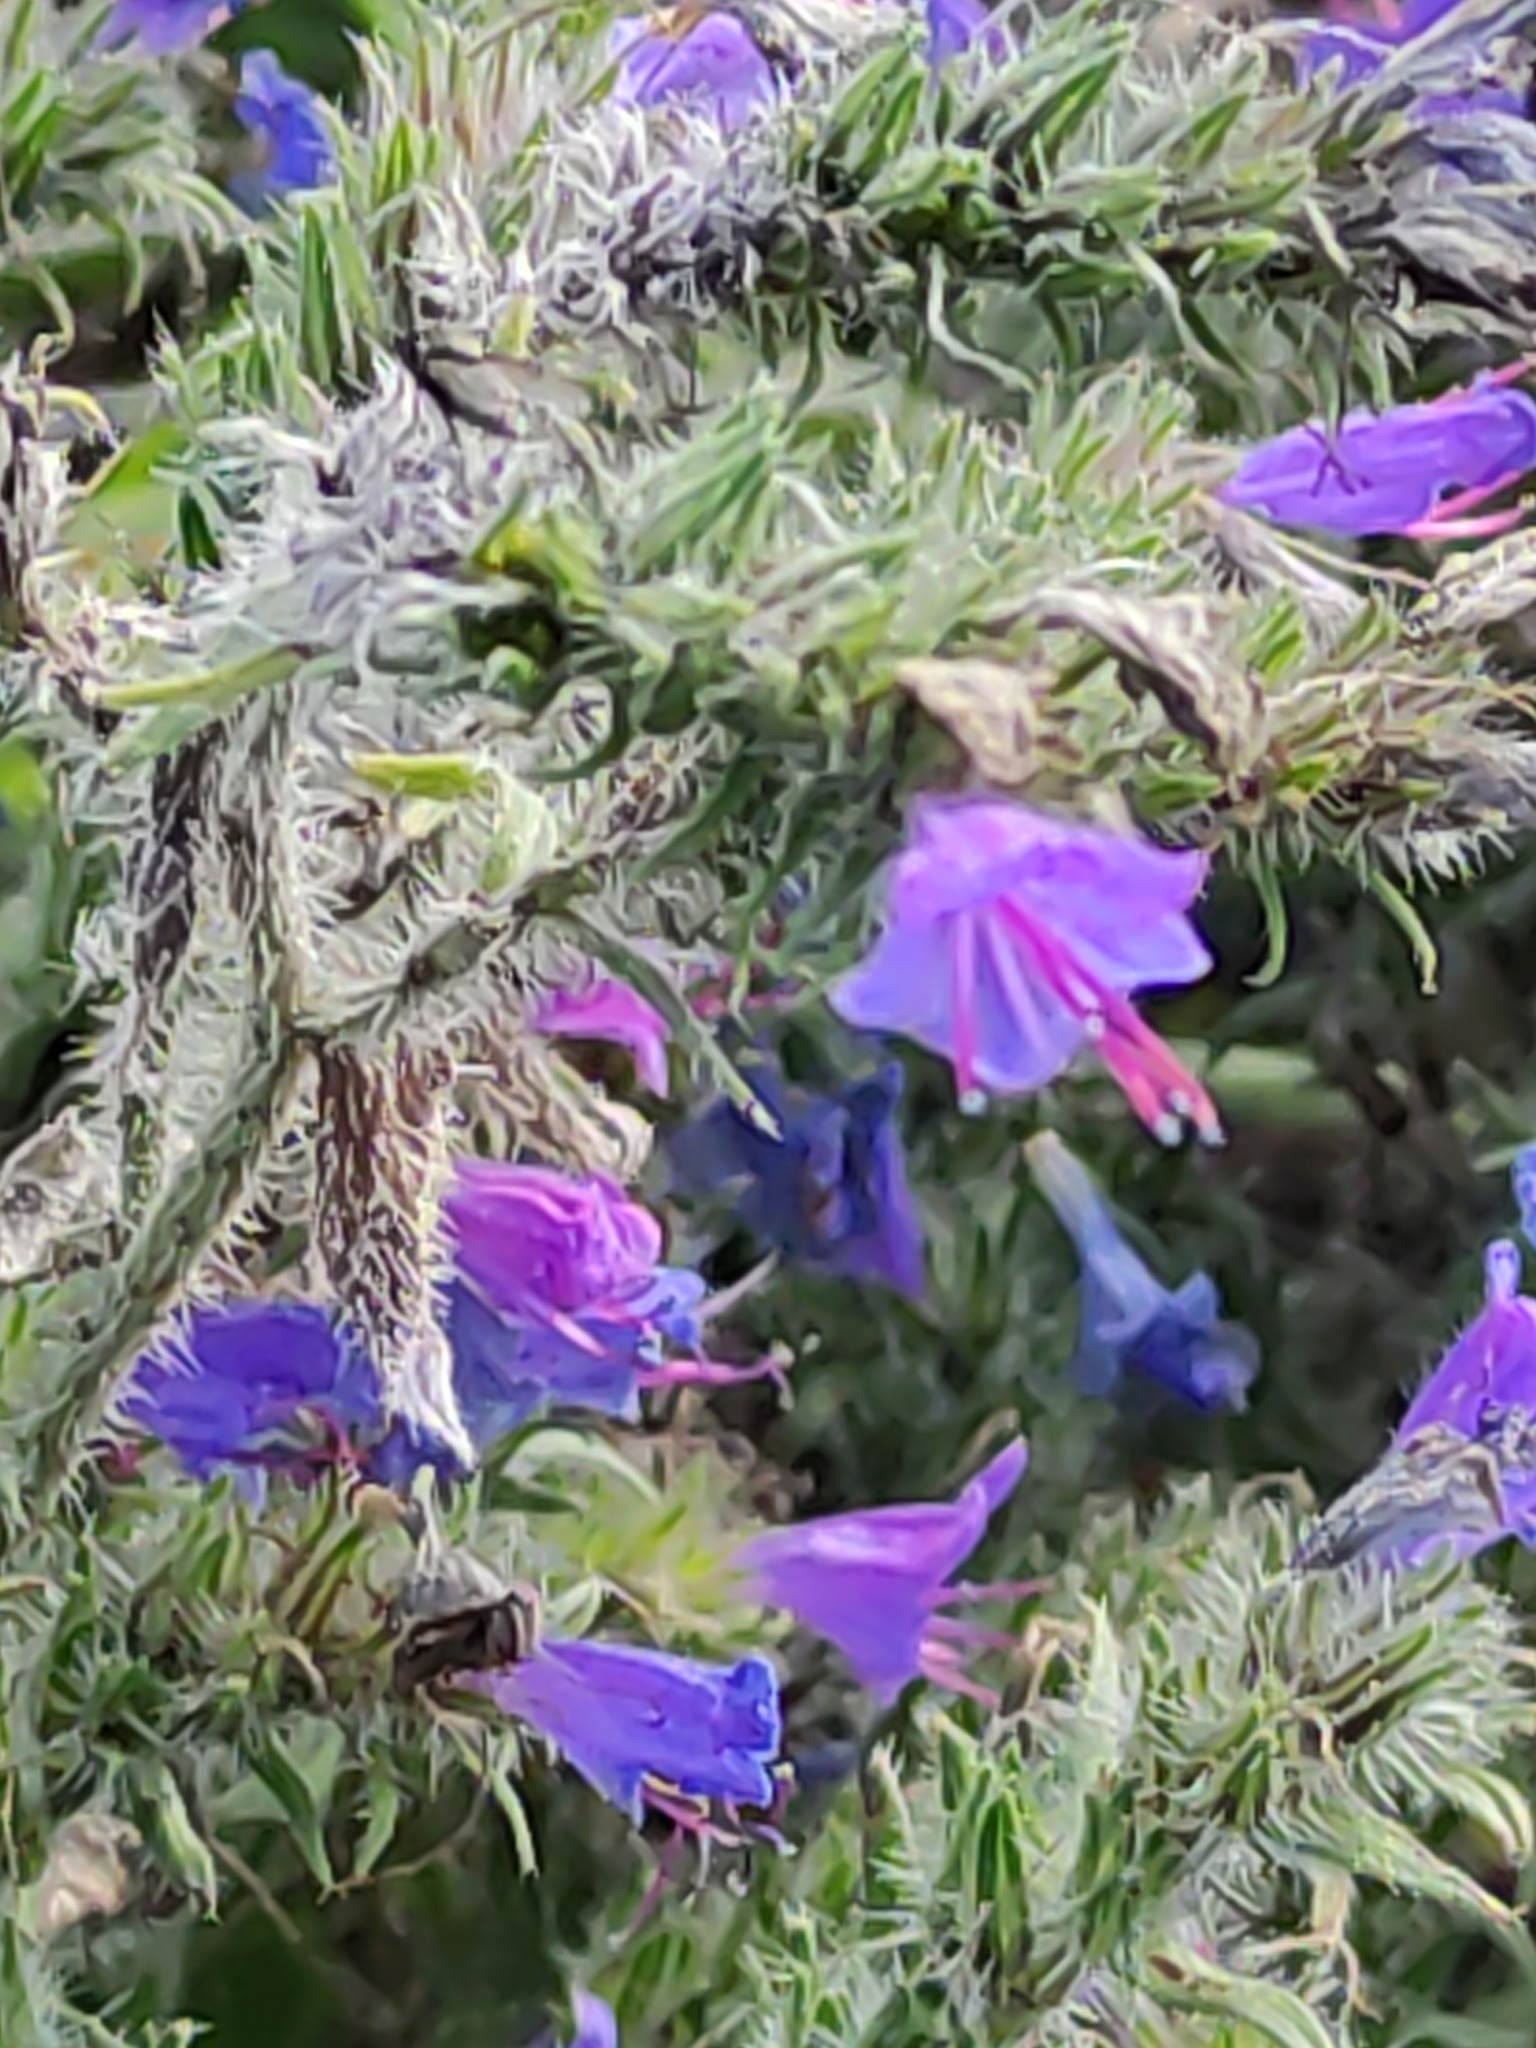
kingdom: Plantae
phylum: Tracheophyta
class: Magnoliopsida
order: Boraginales
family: Boraginaceae
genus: Echium
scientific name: Echium vulgare
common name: Common viper's bugloss
